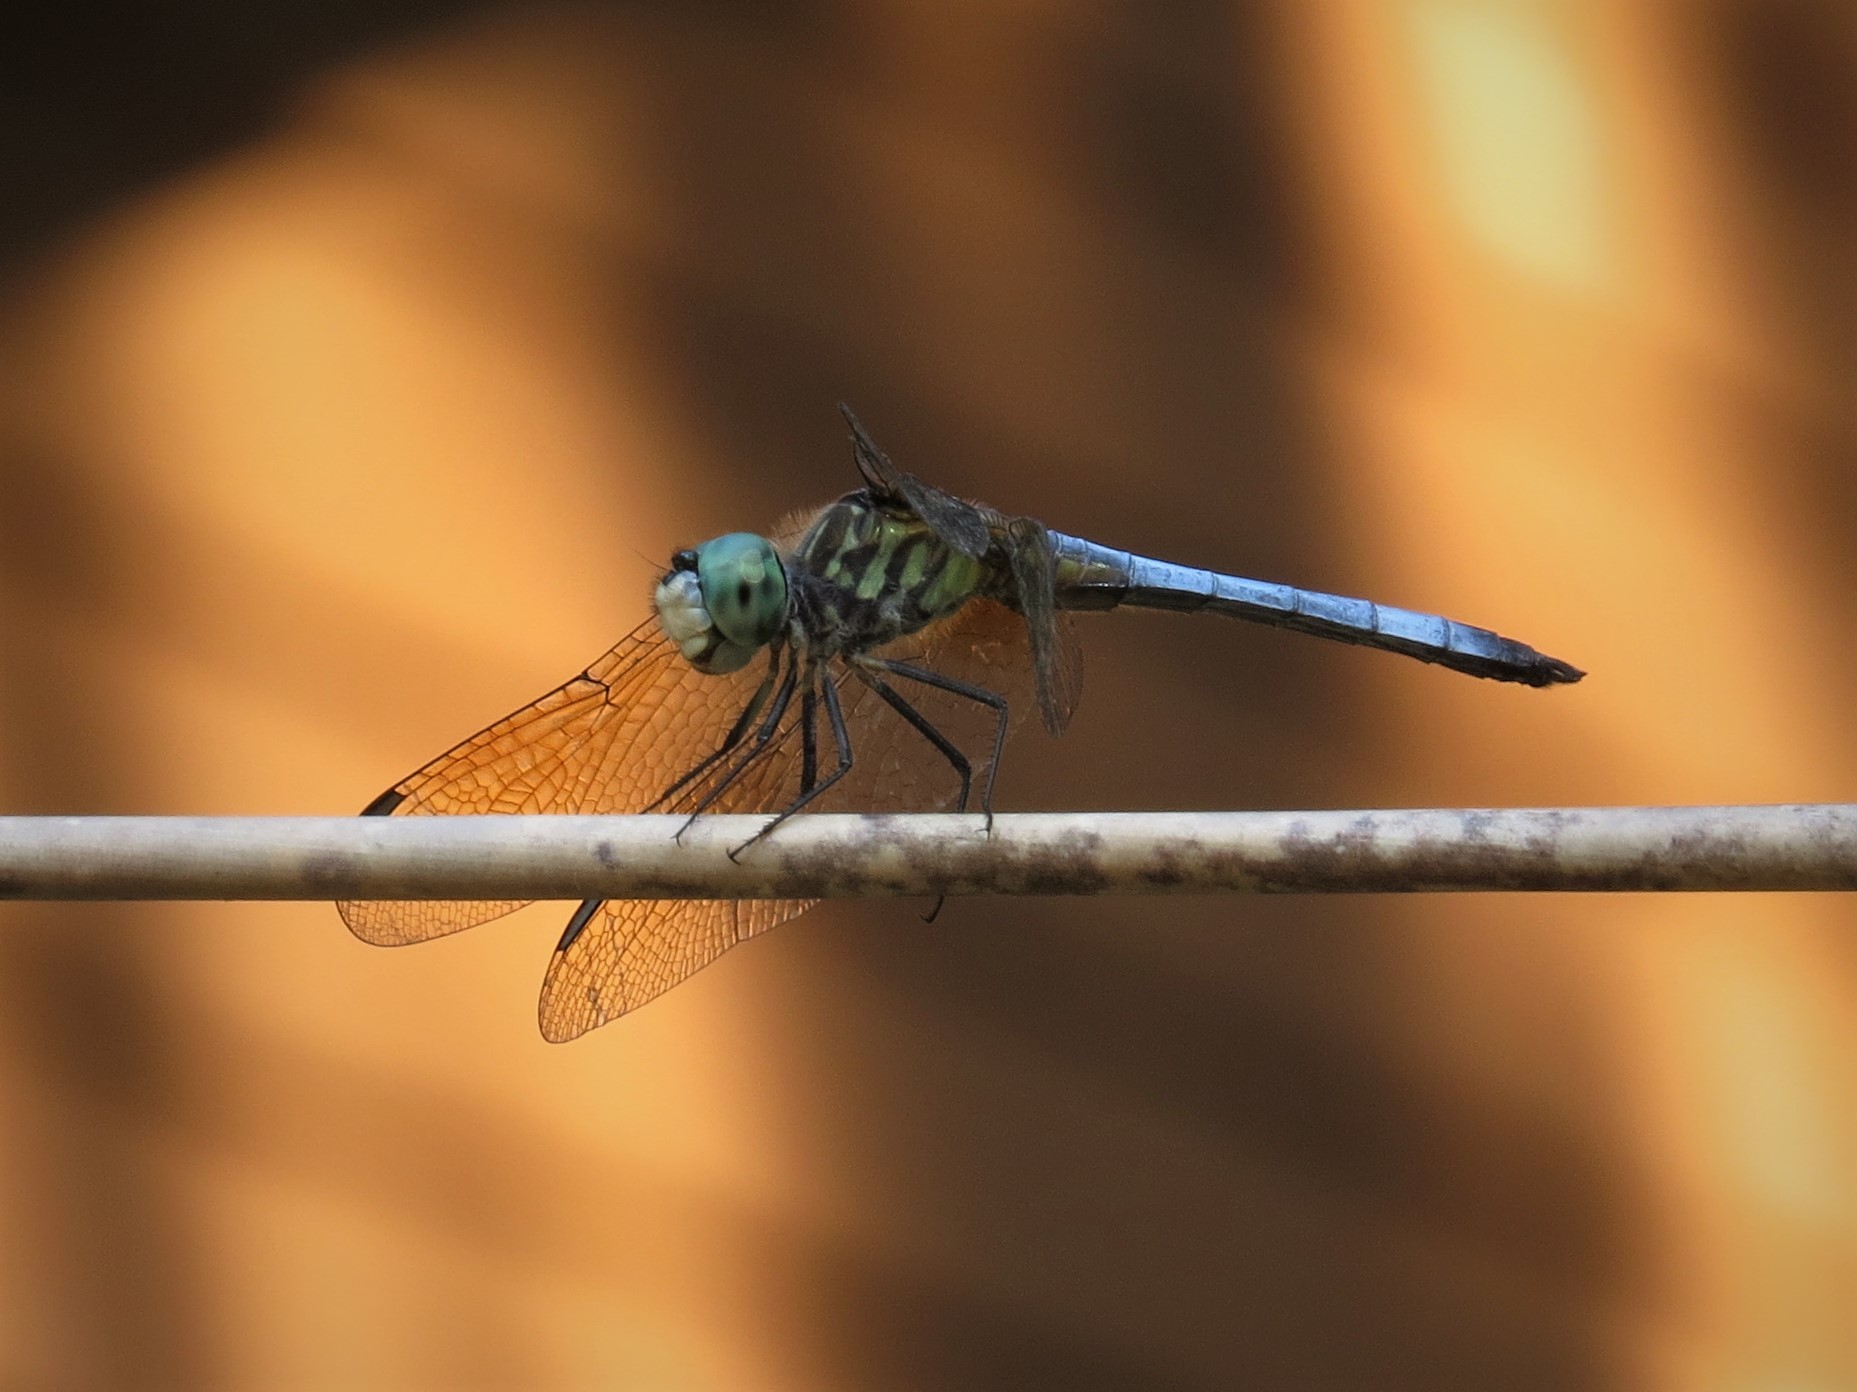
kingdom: Animalia
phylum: Arthropoda
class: Insecta
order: Odonata
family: Libellulidae
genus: Pachydiplax
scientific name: Pachydiplax longipennis
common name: Blue dasher
